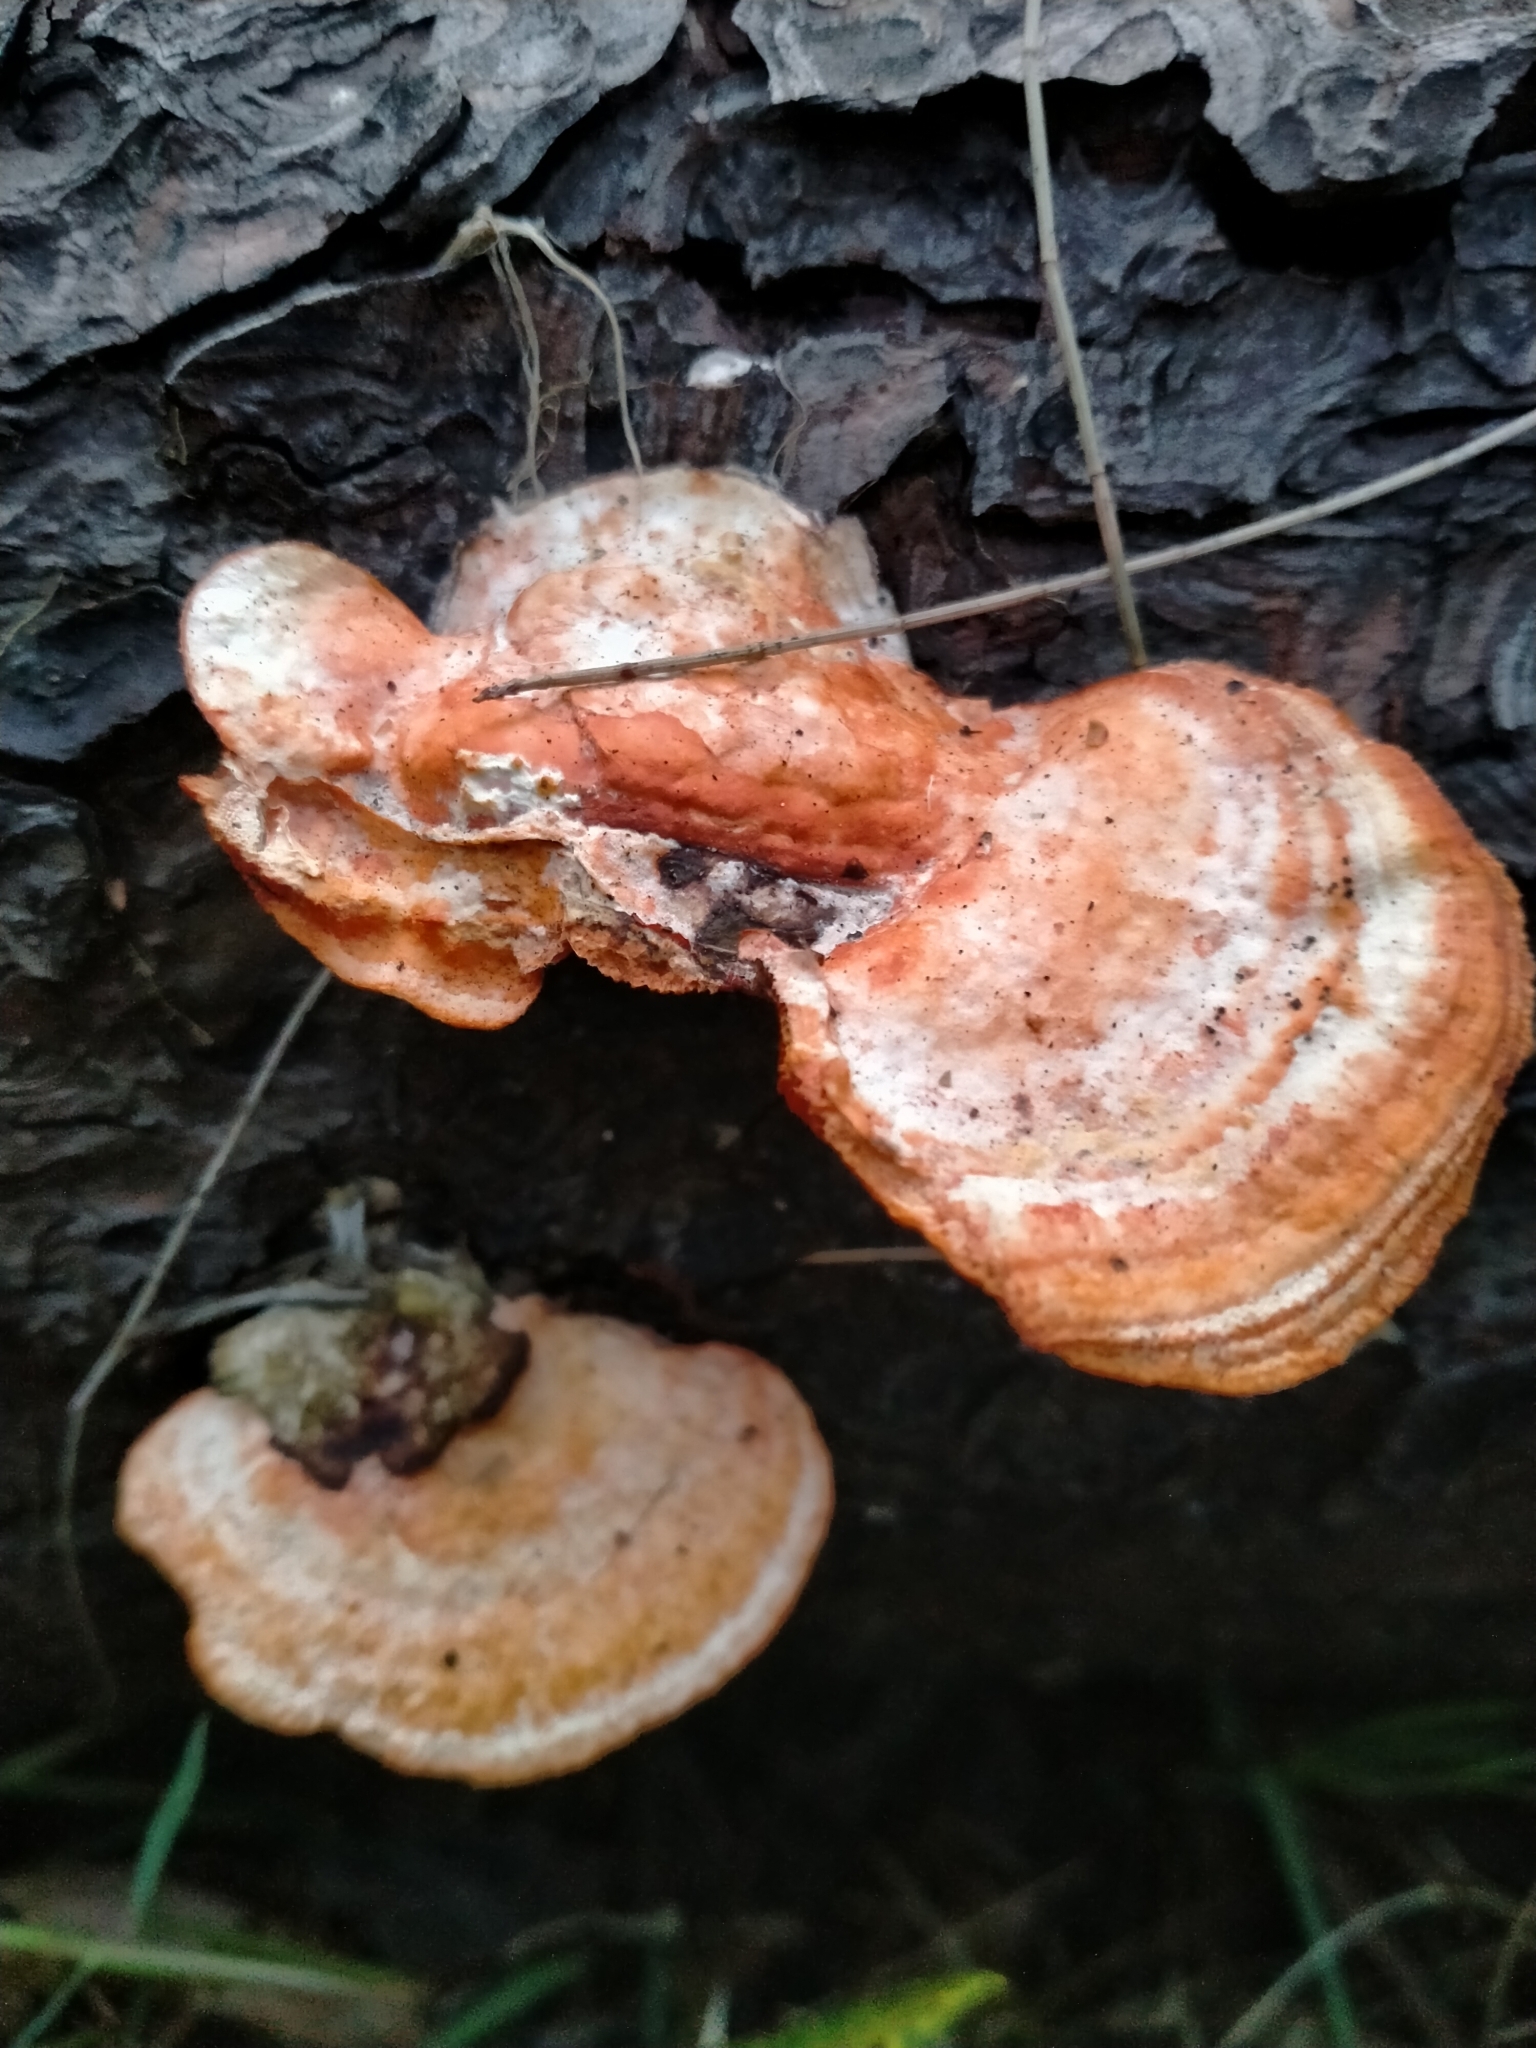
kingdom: Fungi
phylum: Basidiomycota
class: Agaricomycetes
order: Polyporales
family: Polyporaceae
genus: Trametes
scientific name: Trametes coccinea
